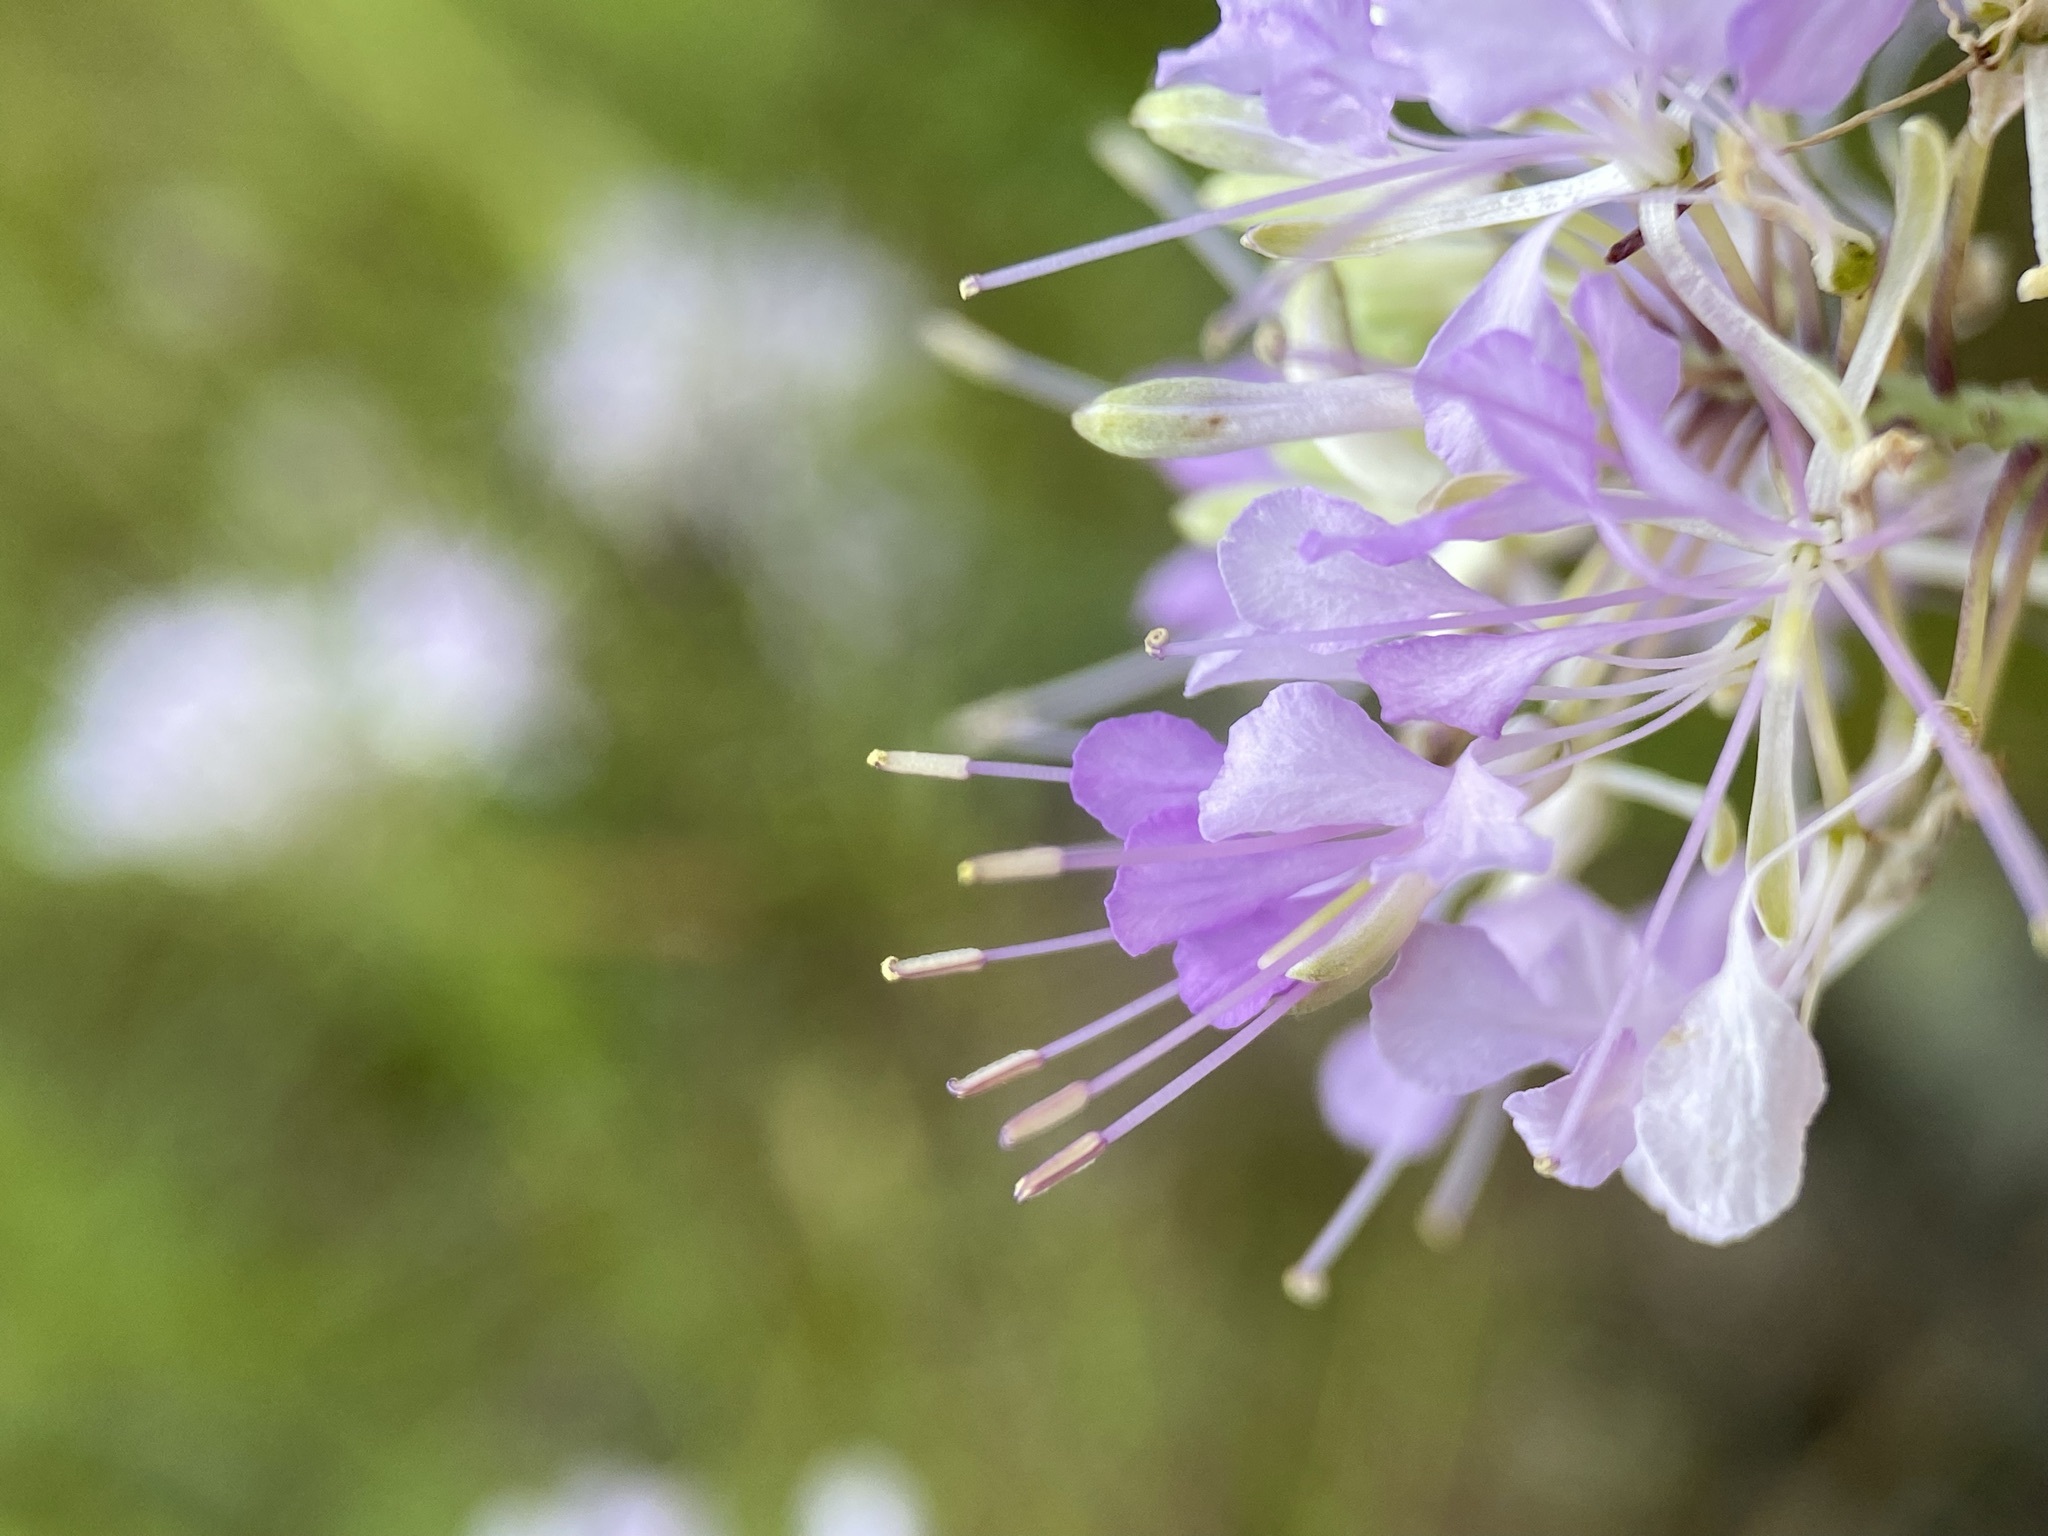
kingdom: Plantae
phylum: Tracheophyta
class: Magnoliopsida
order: Brassicales
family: Brassicaceae
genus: Warea
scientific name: Warea cuneifolia
